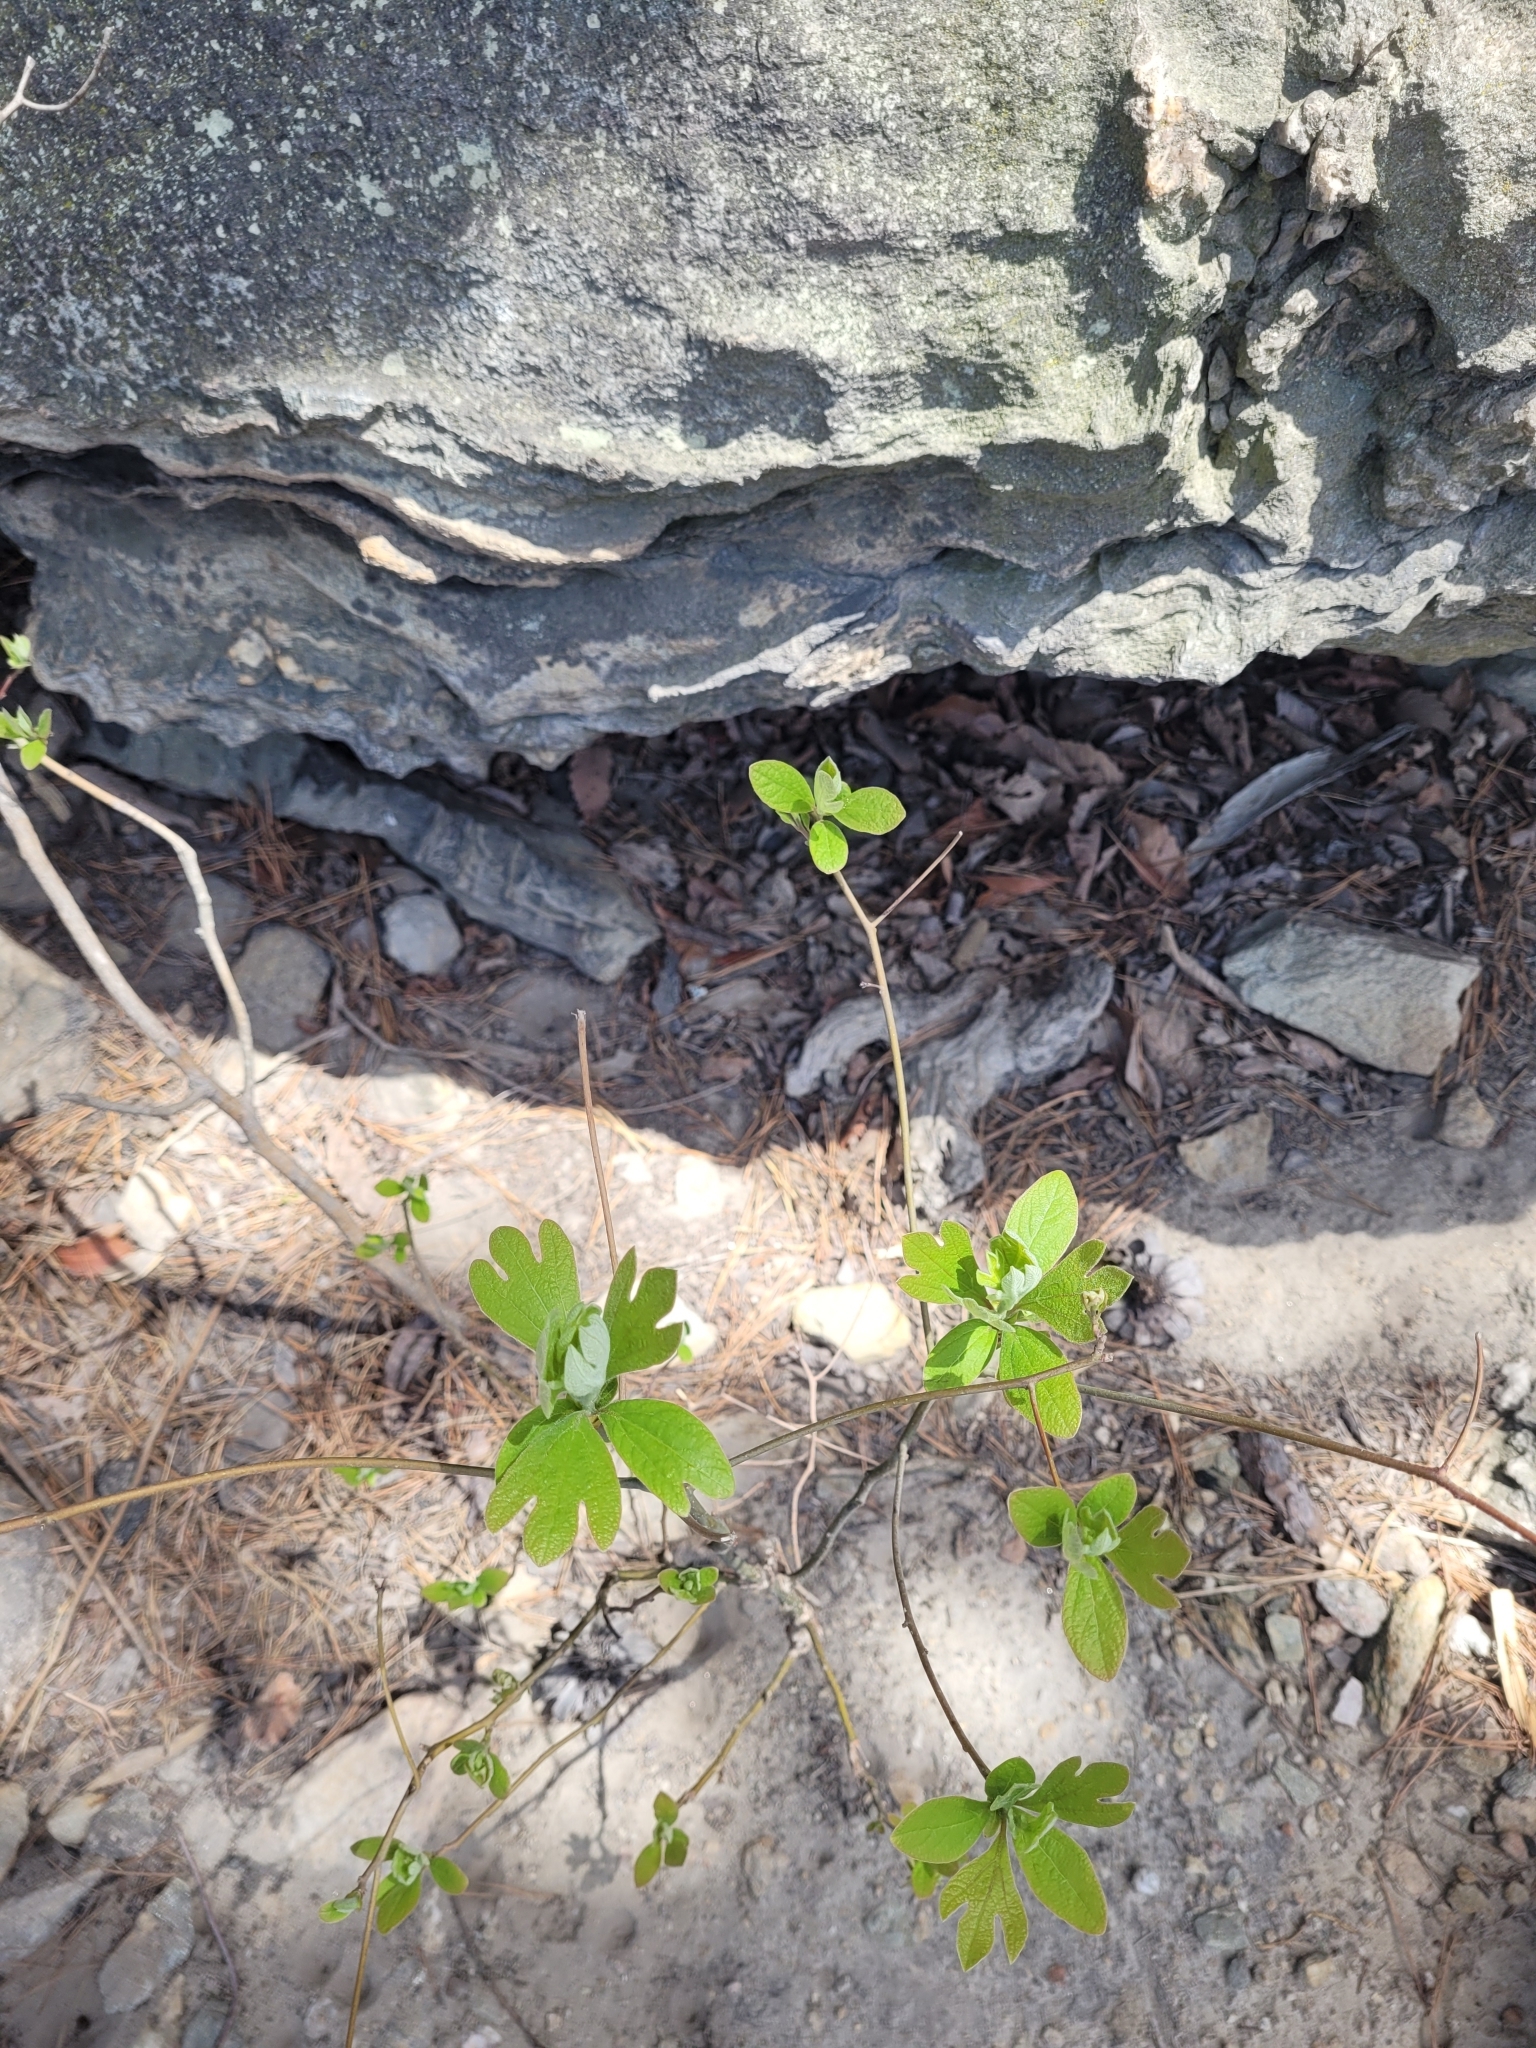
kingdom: Plantae
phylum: Tracheophyta
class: Magnoliopsida
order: Laurales
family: Lauraceae
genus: Sassafras
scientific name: Sassafras albidum
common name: Sassafras
